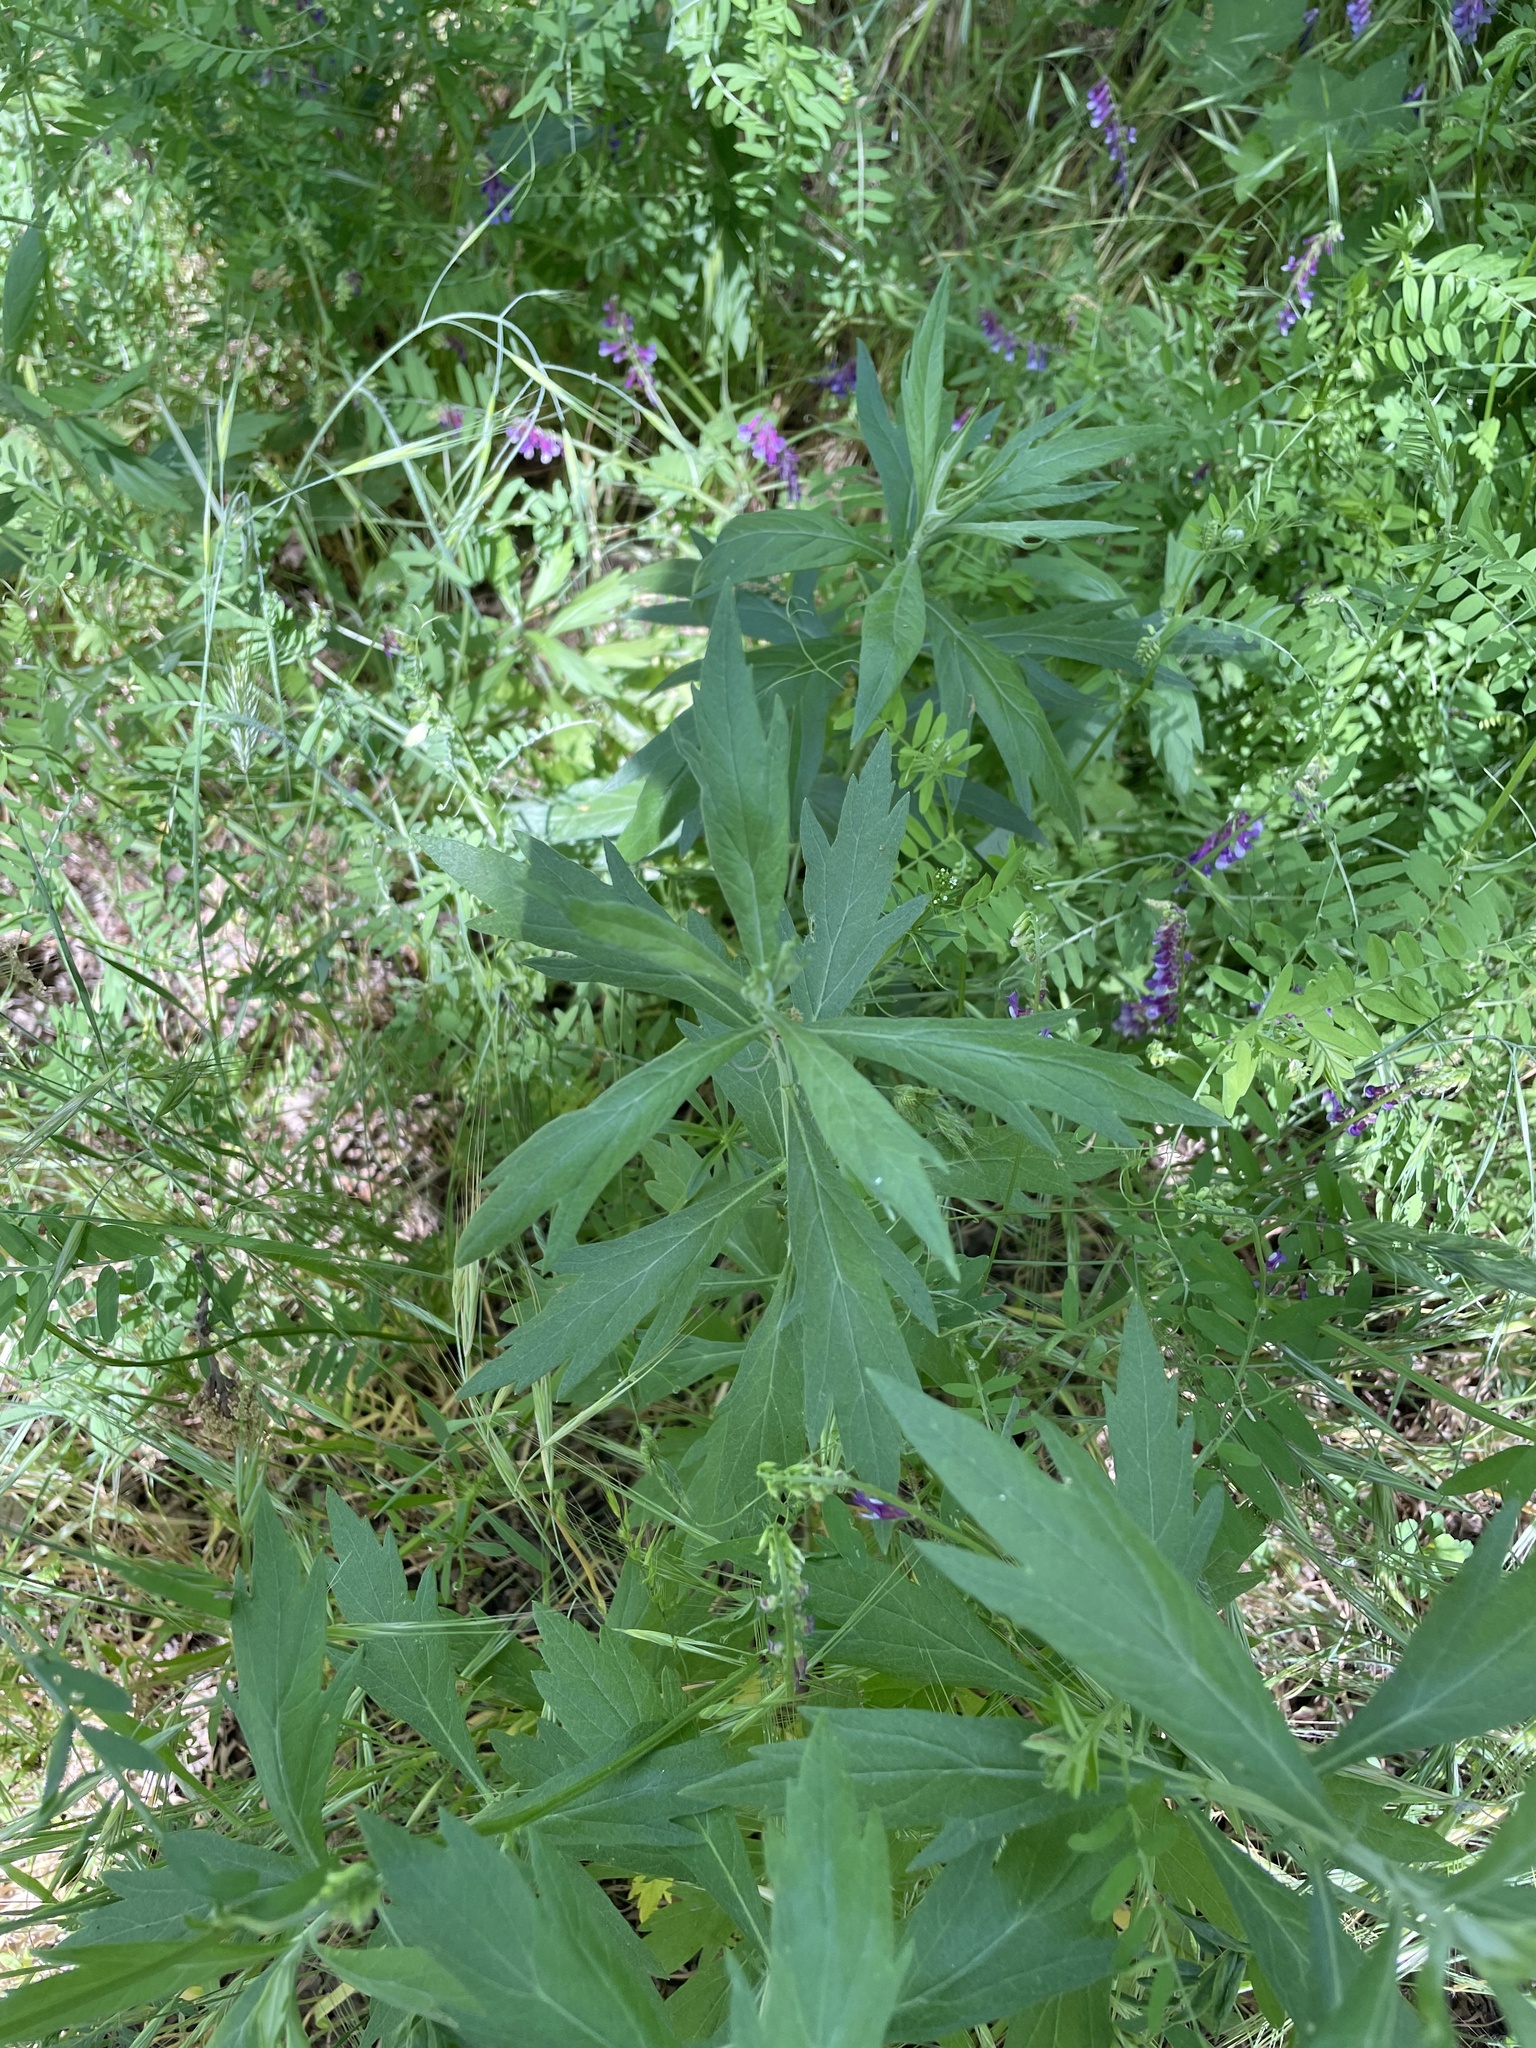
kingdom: Plantae
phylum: Tracheophyta
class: Magnoliopsida
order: Asterales
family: Asteraceae
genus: Artemisia
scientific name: Artemisia douglasiana
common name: Northwest mugwort
